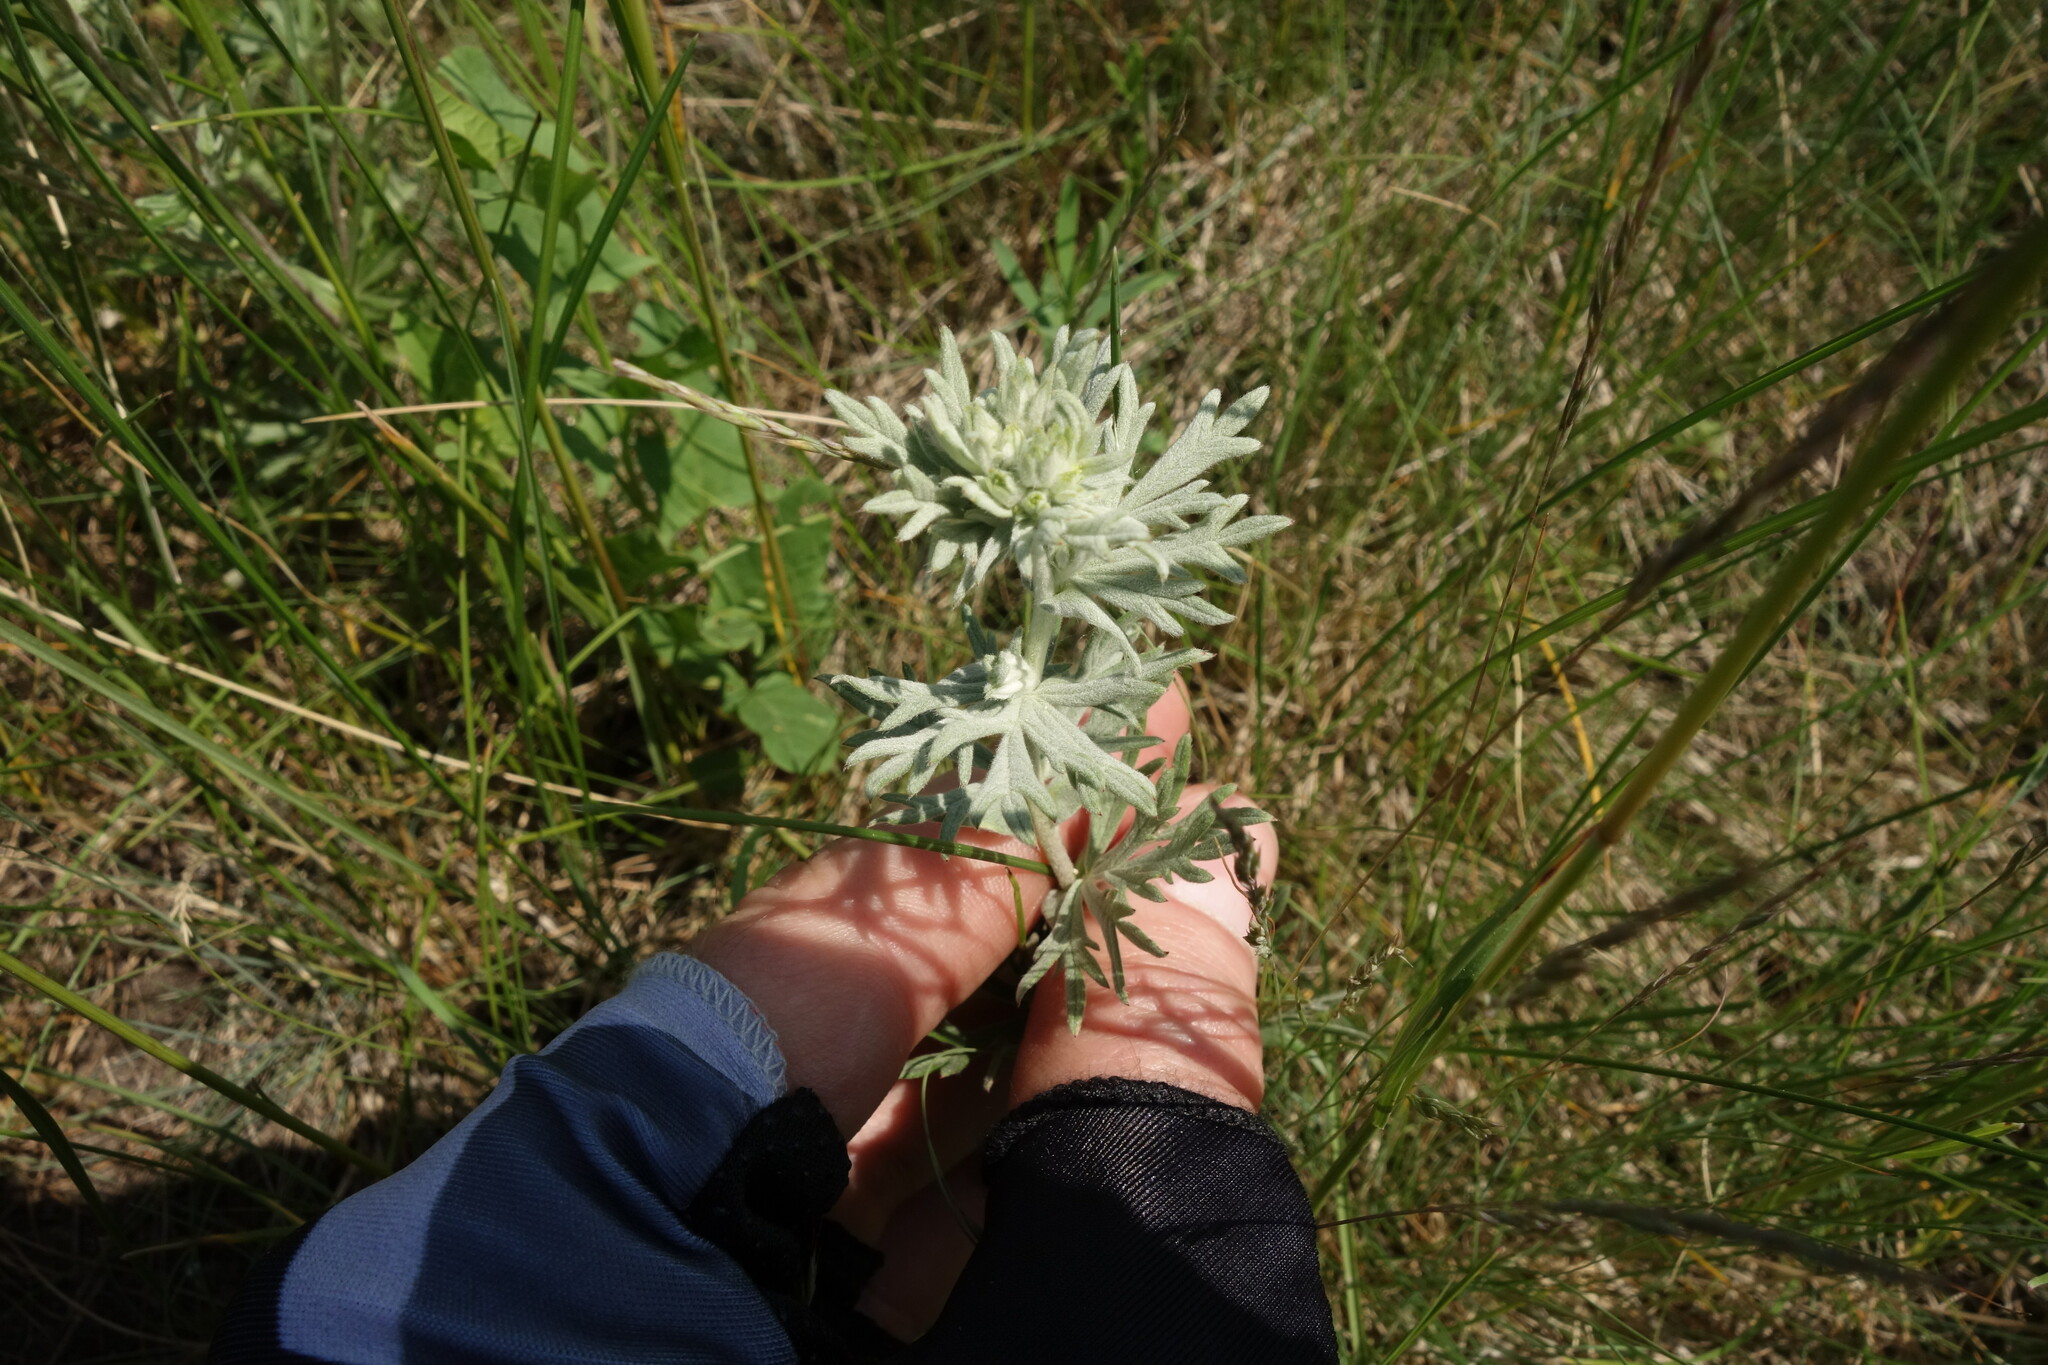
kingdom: Plantae
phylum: Tracheophyta
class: Magnoliopsida
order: Rosales
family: Rosaceae
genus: Potentilla
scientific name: Potentilla argentea
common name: Hoary cinquefoil
